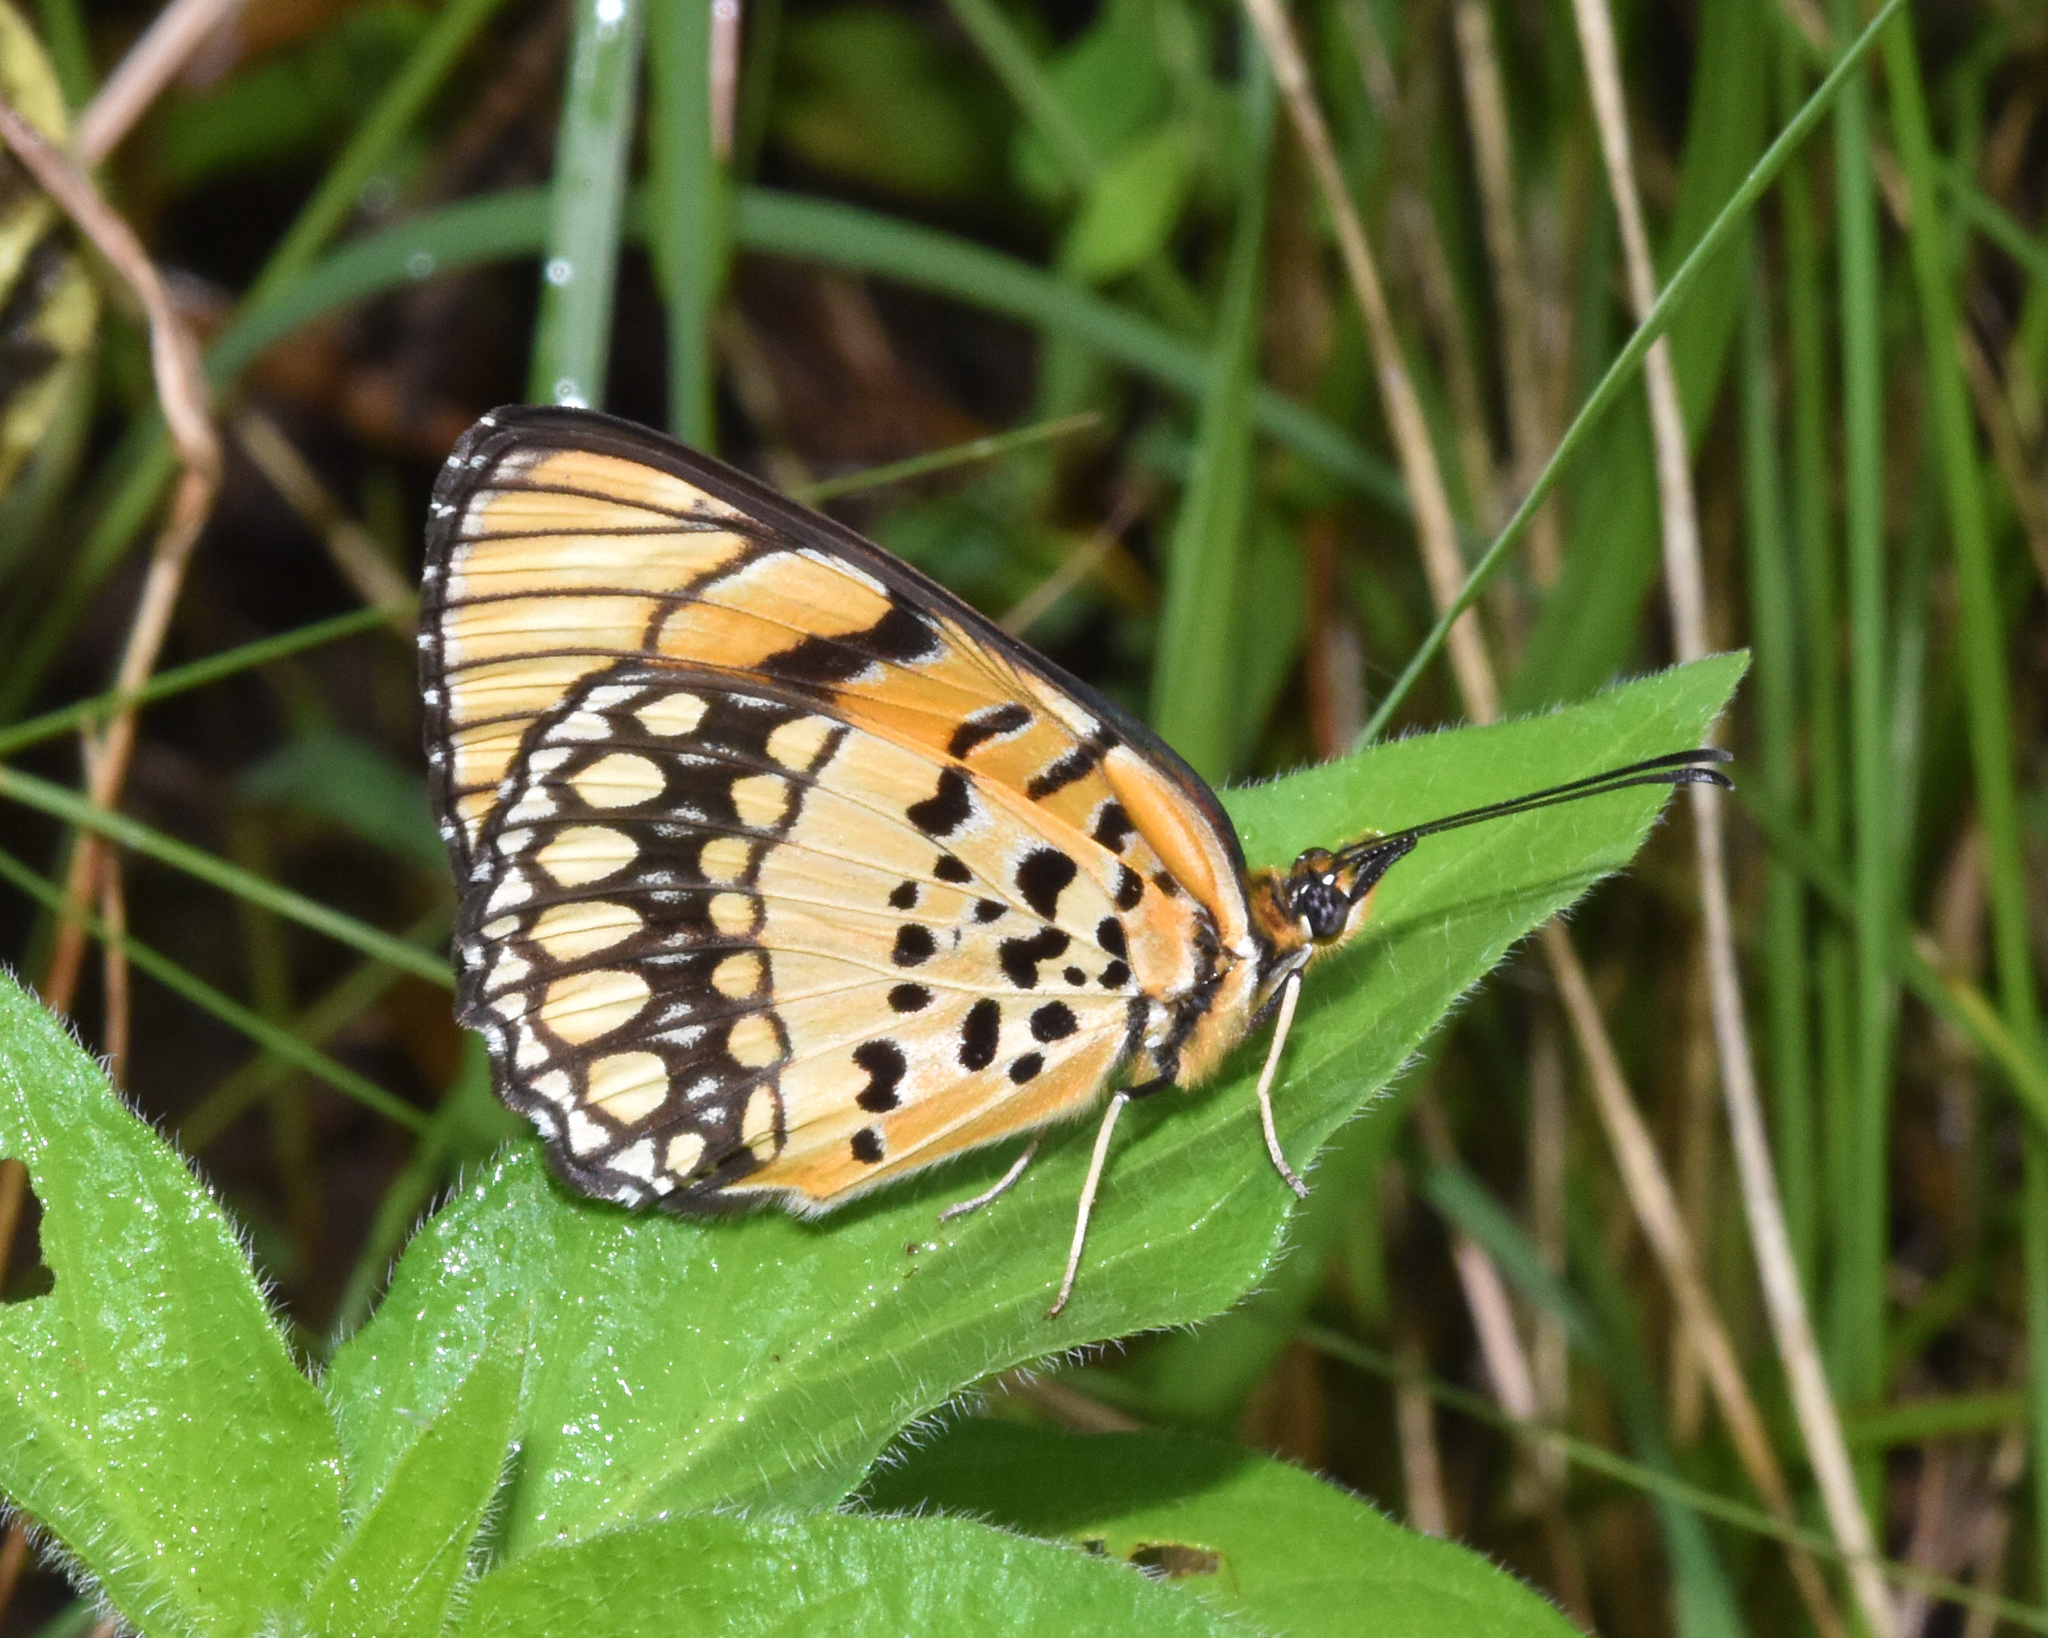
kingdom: Animalia
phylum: Arthropoda
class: Insecta
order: Lepidoptera
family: Nymphalidae
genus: Byblia
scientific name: Byblia anvatara
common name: African joker
